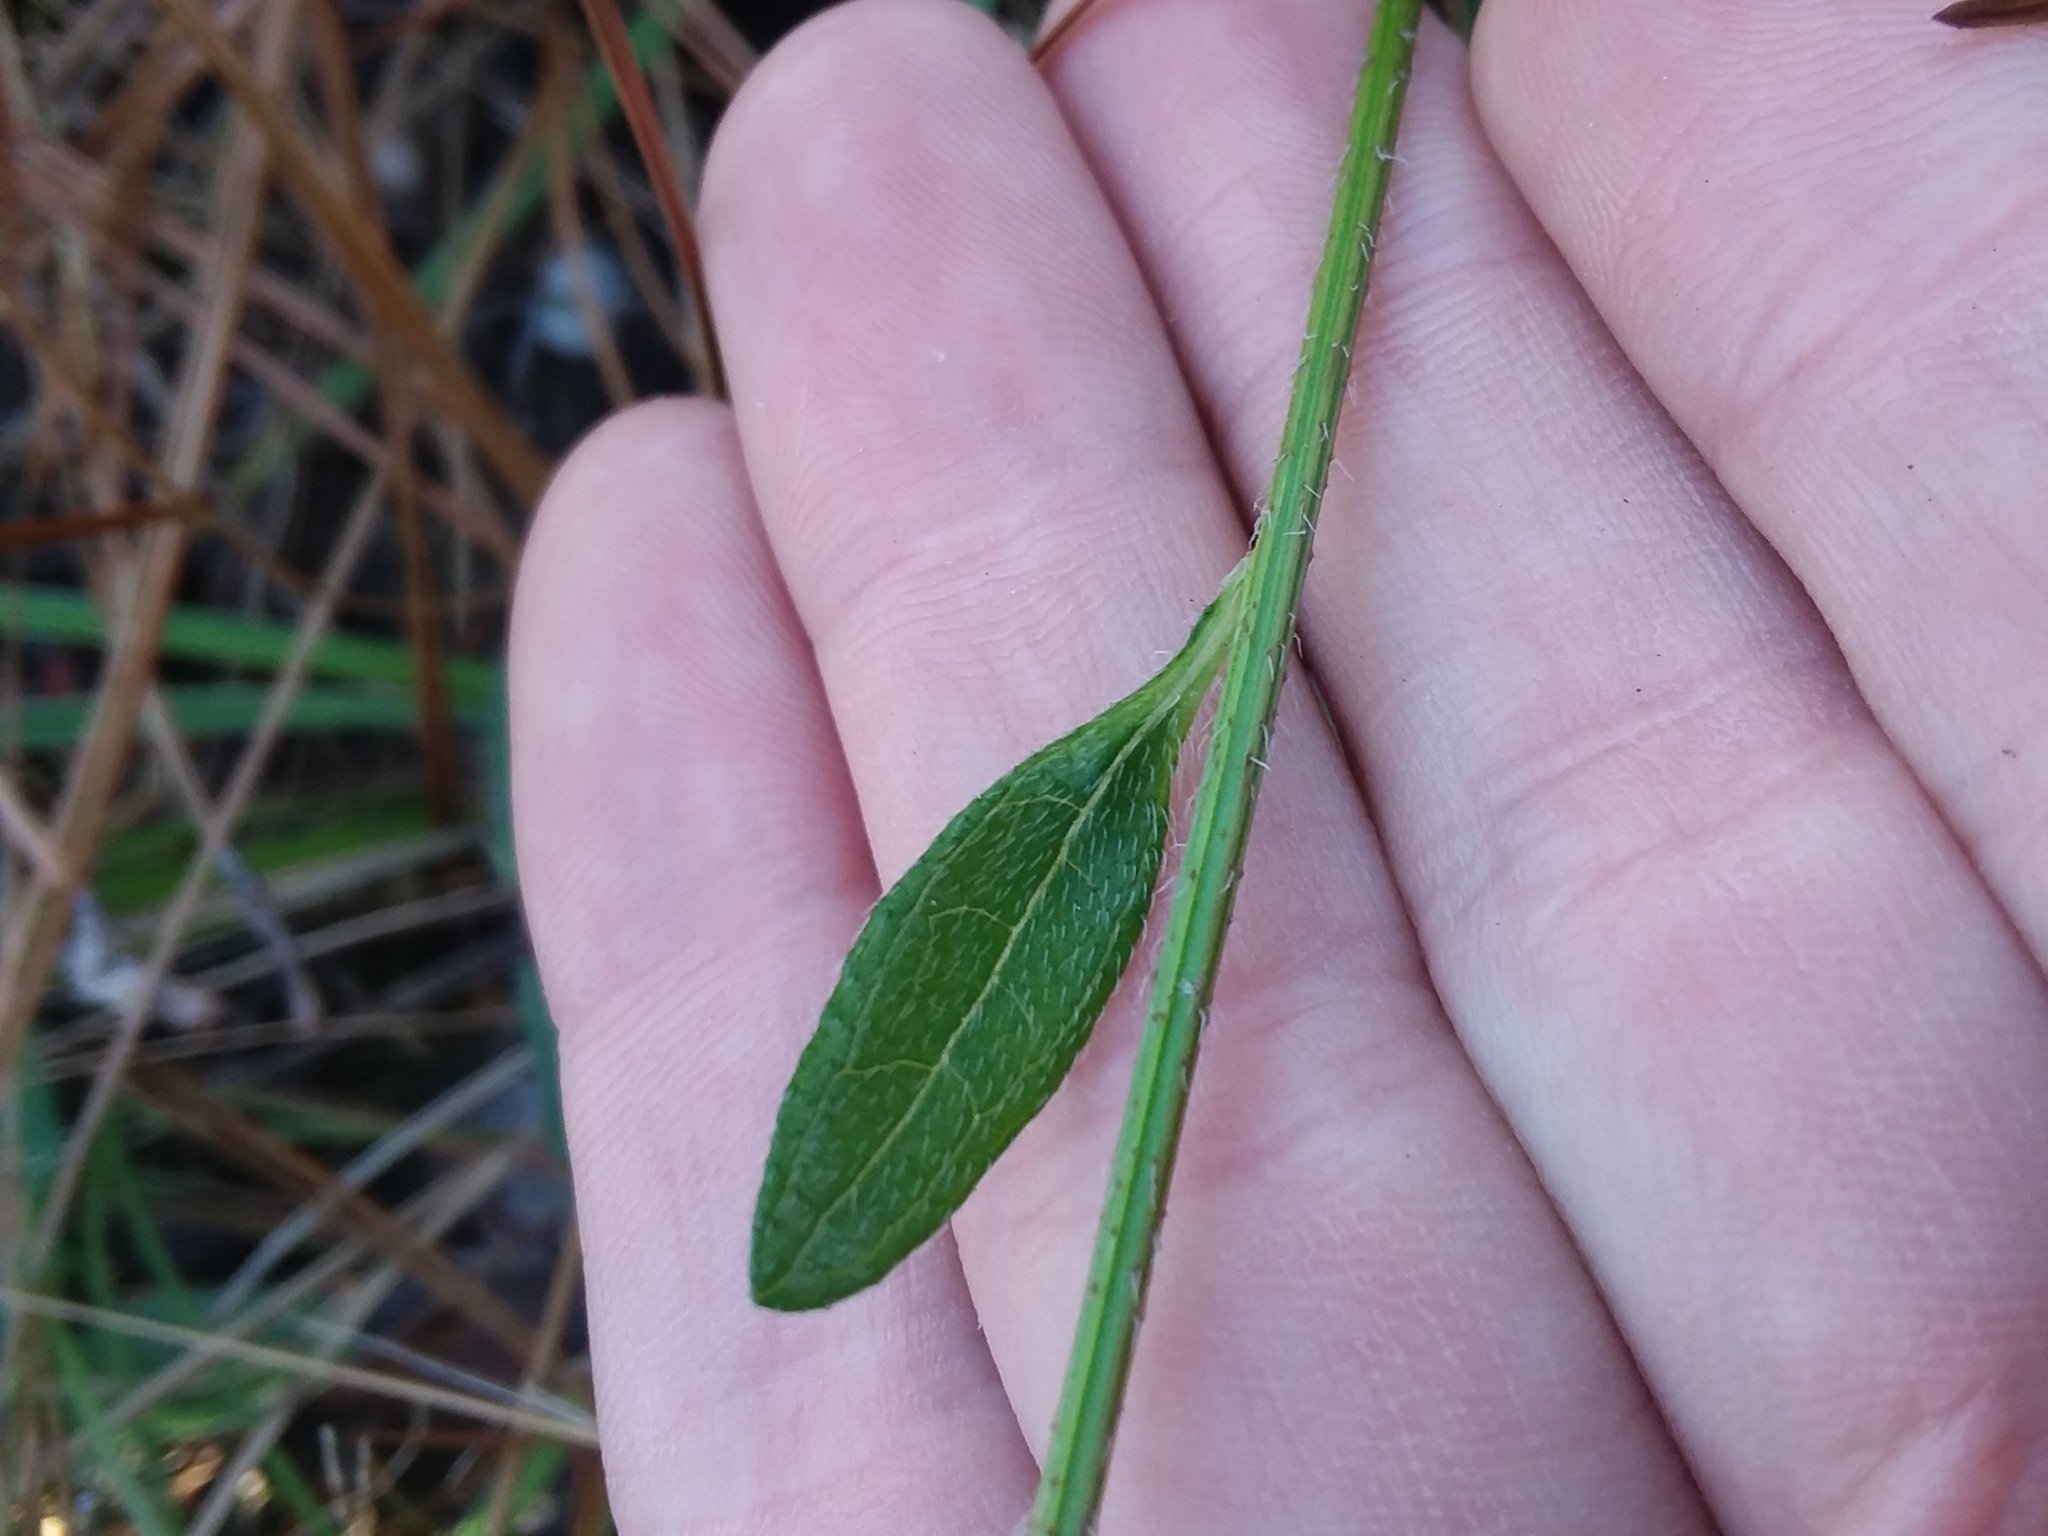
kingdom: Plantae
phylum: Tracheophyta
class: Magnoliopsida
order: Asterales
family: Asteraceae
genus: Rudbeckia
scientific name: Rudbeckia hirta
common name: Black-eyed-susan
